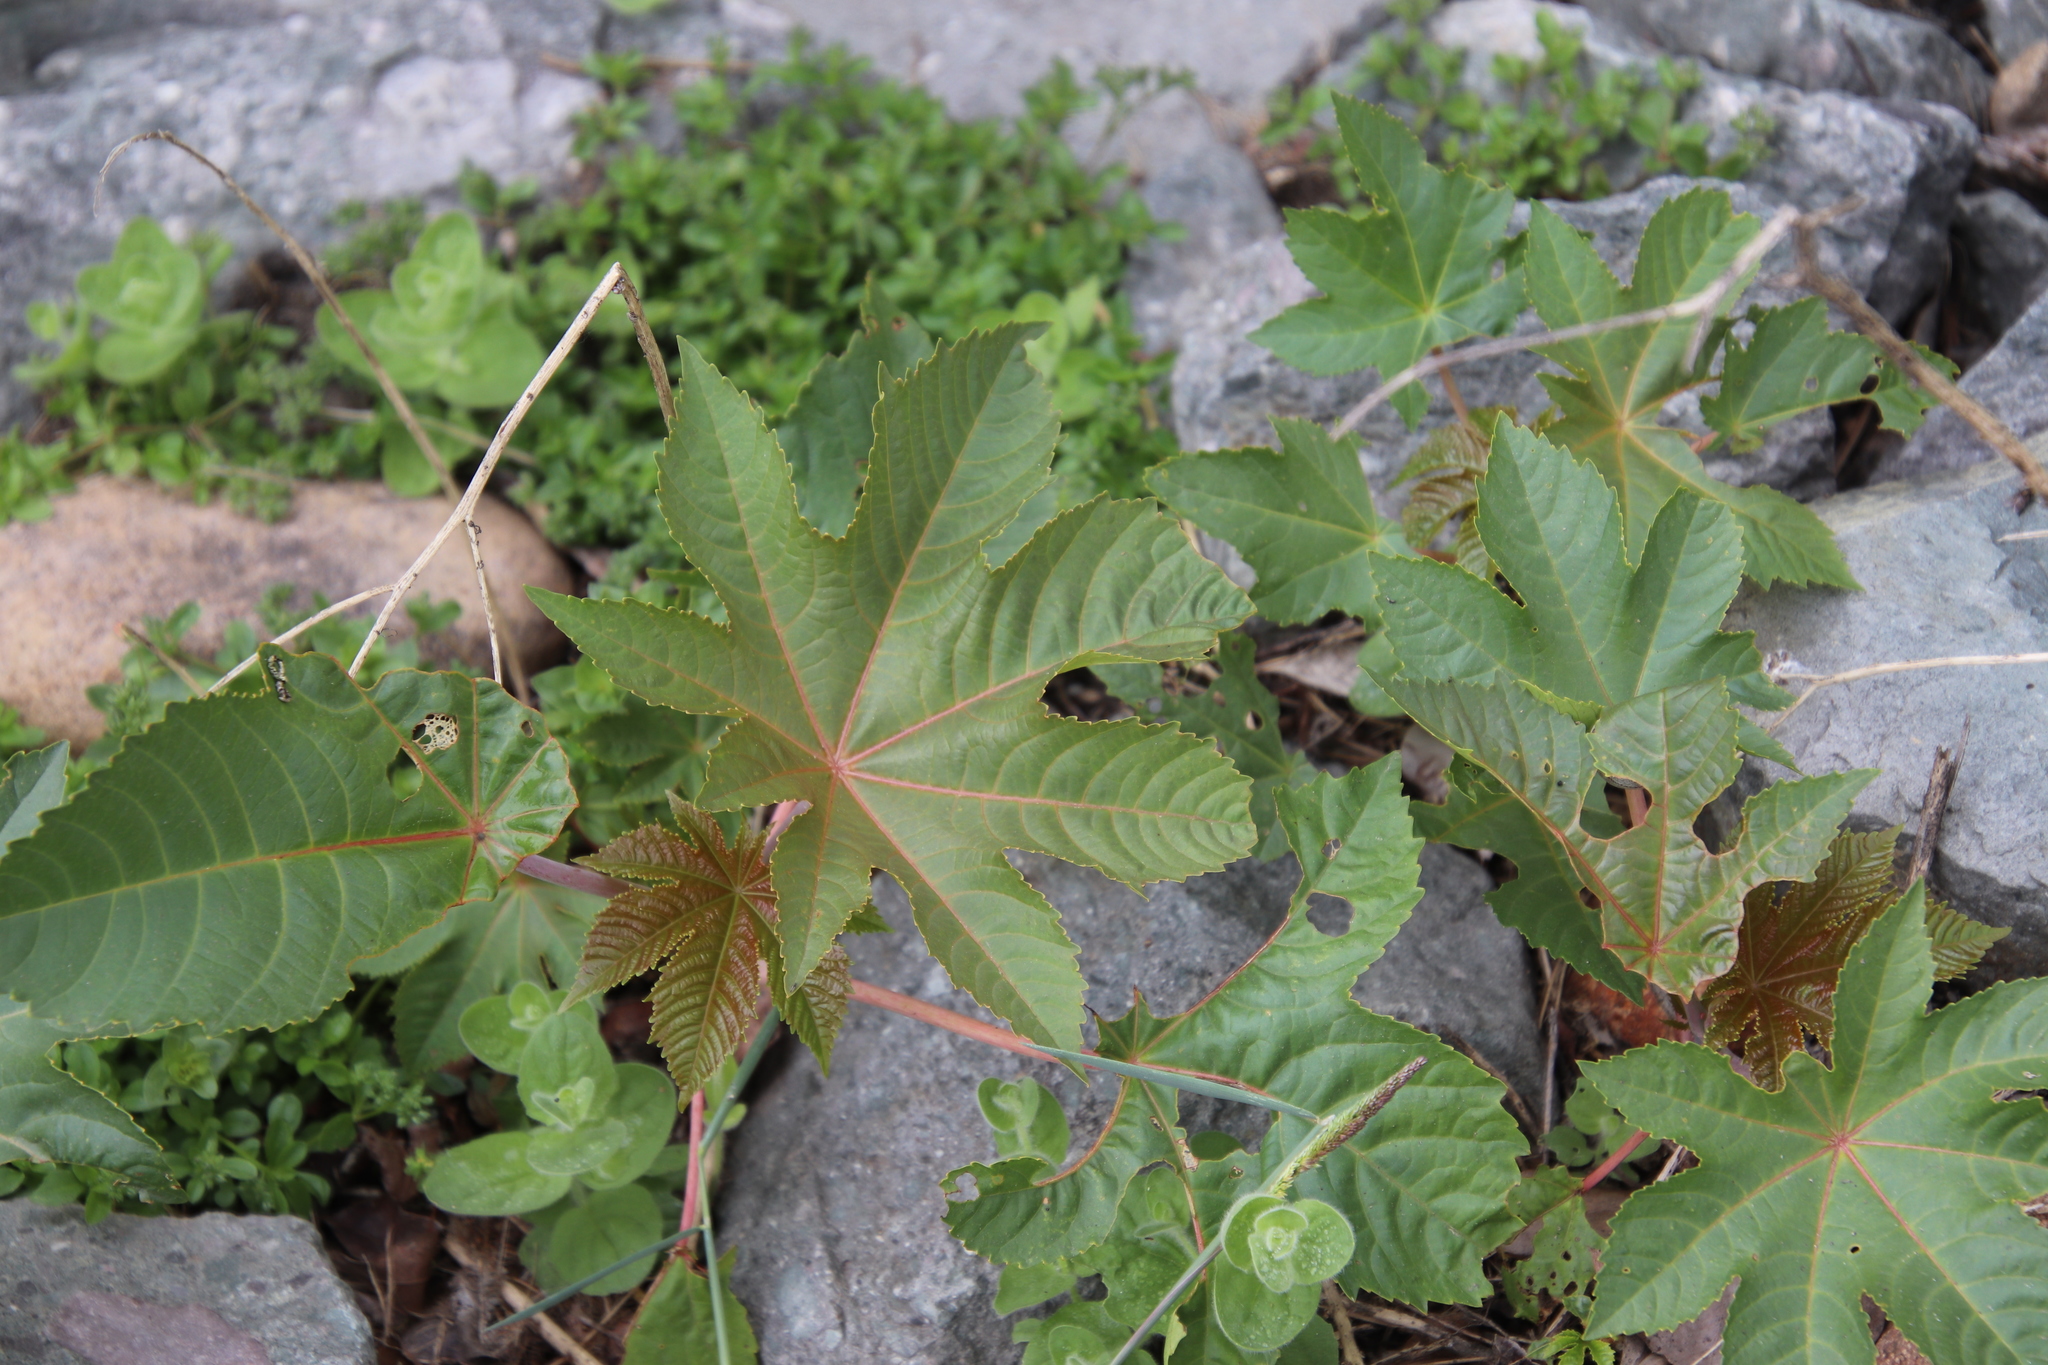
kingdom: Plantae
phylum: Tracheophyta
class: Magnoliopsida
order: Malpighiales
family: Euphorbiaceae
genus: Ricinus
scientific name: Ricinus communis
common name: Castor-oil-plant
